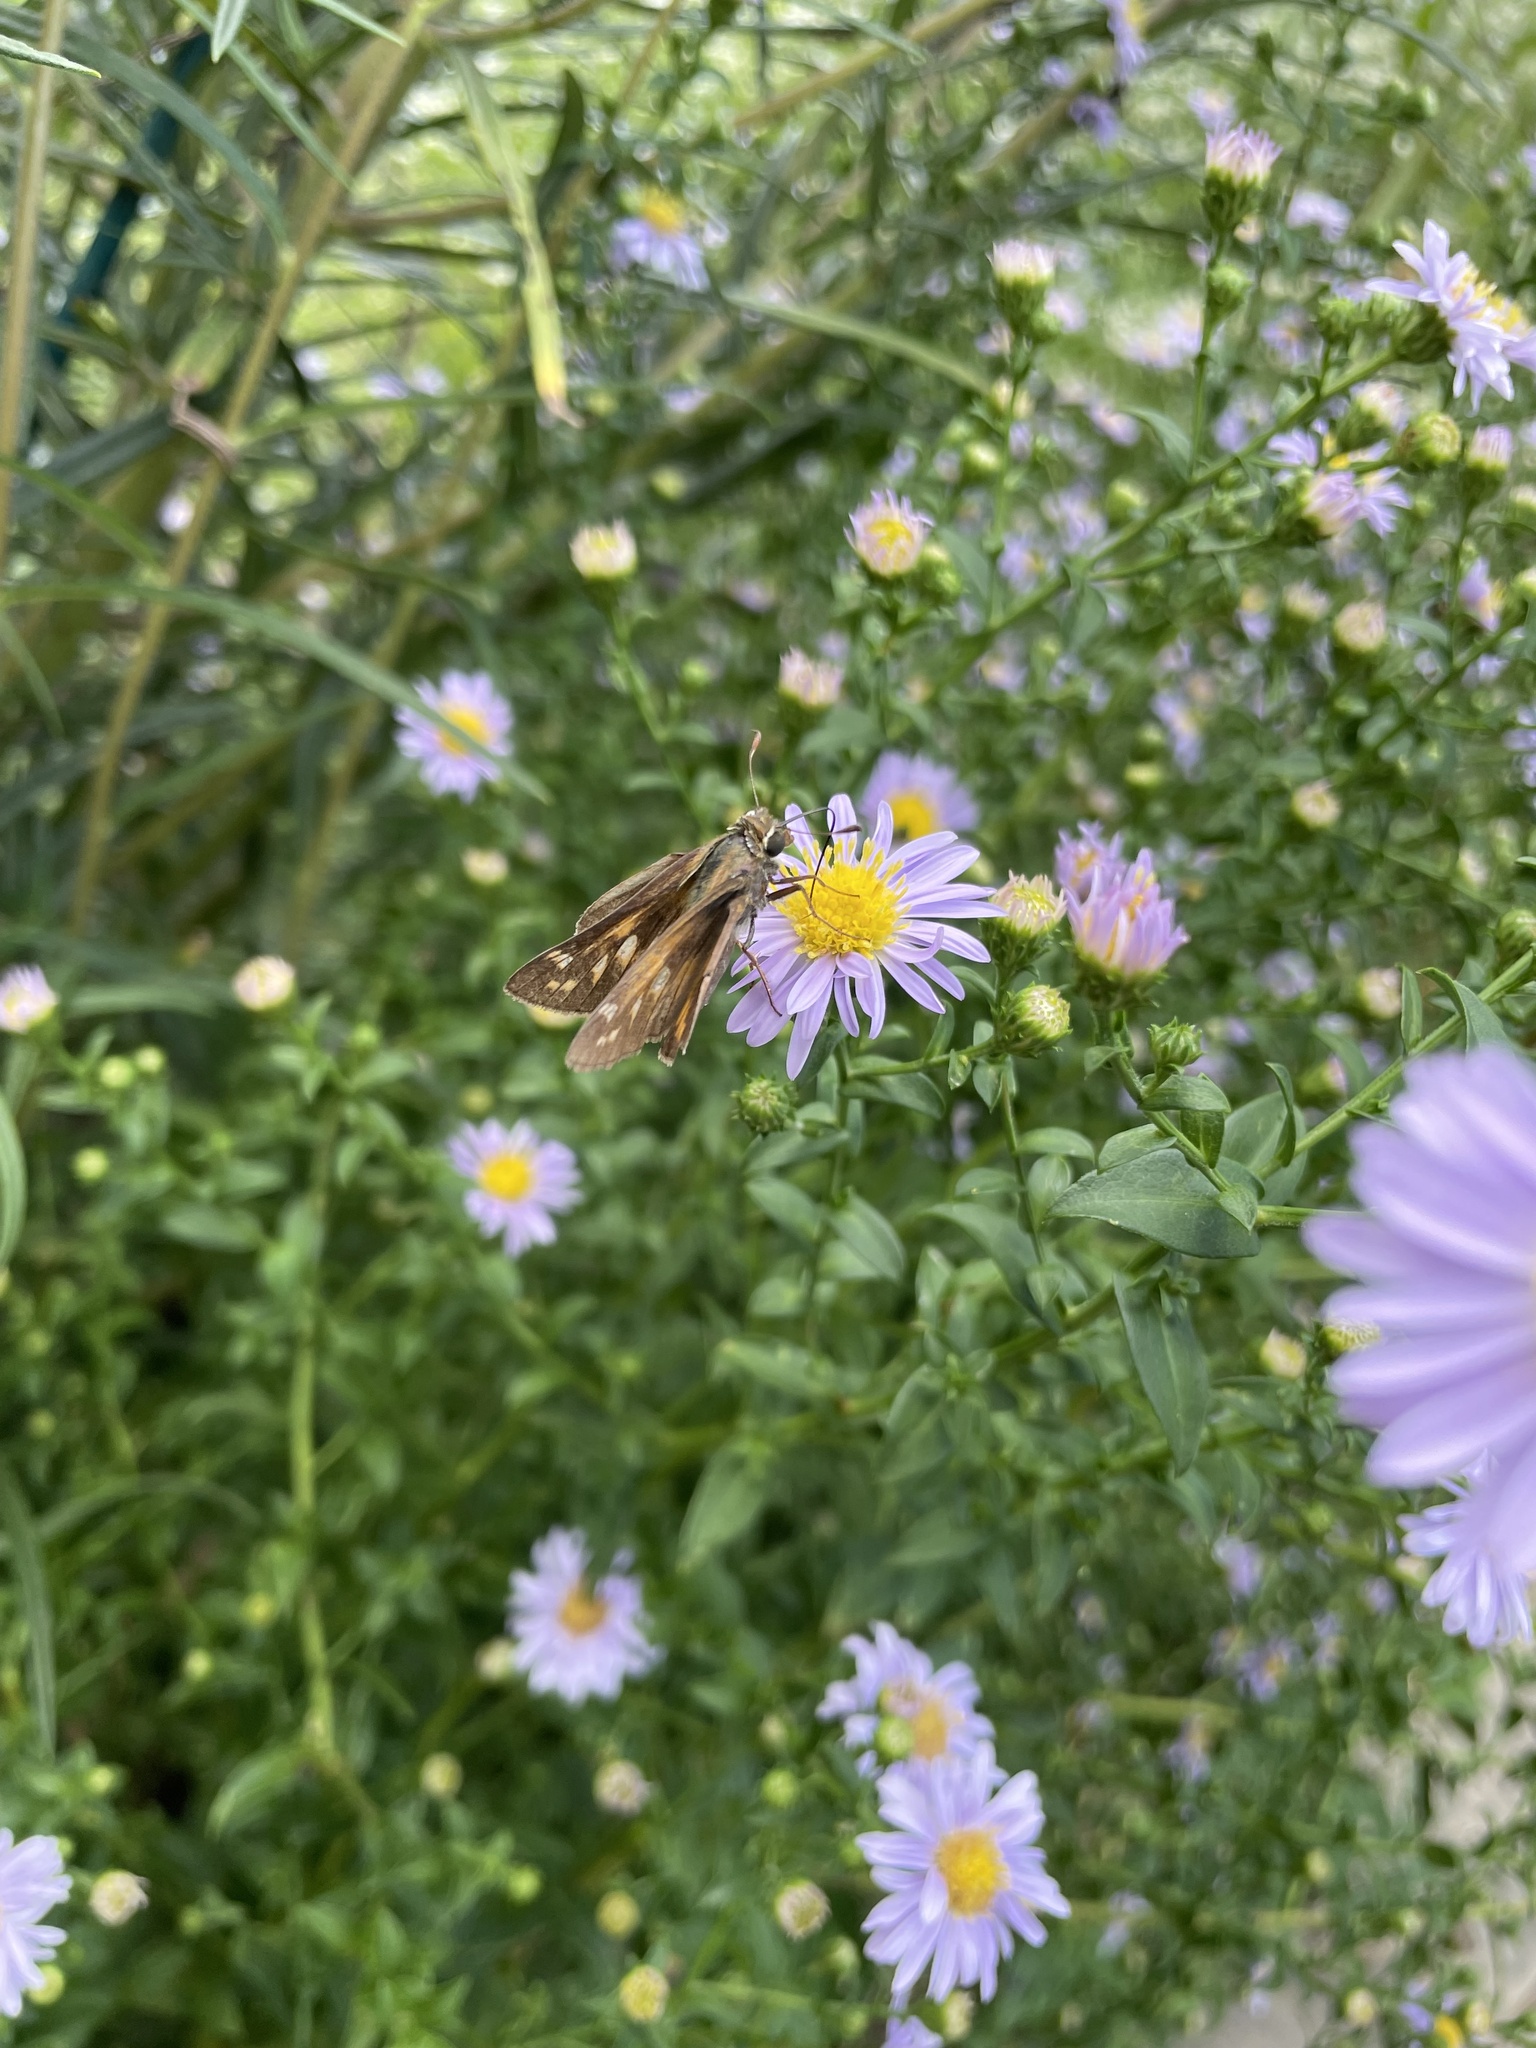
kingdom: Animalia
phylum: Arthropoda
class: Insecta
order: Lepidoptera
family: Hesperiidae
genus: Atalopedes
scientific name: Atalopedes
